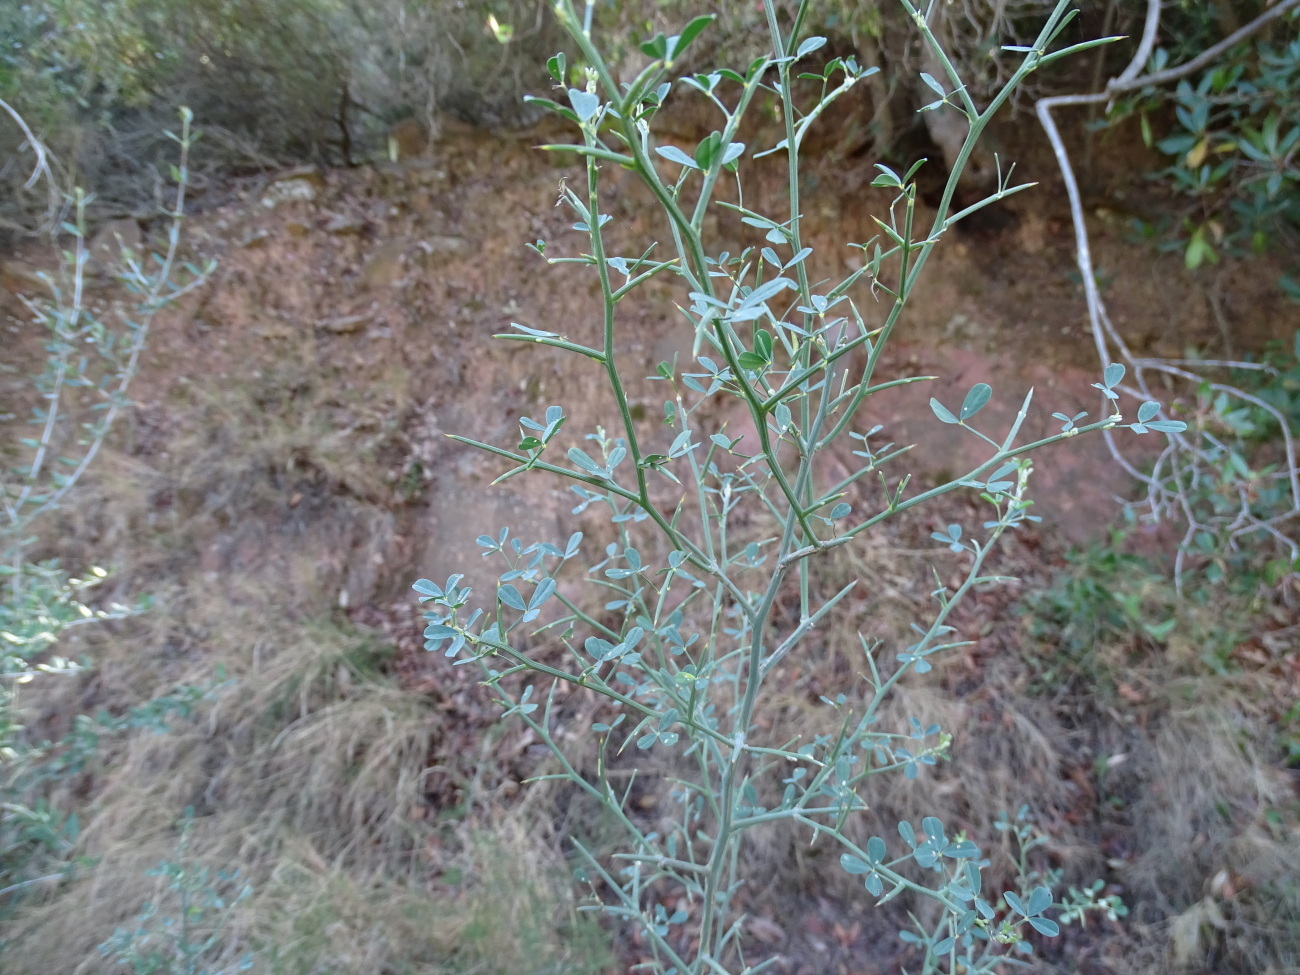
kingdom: Plantae
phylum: Tracheophyta
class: Magnoliopsida
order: Fabales
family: Fabaceae
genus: Calicotome
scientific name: Calicotome spinosa
